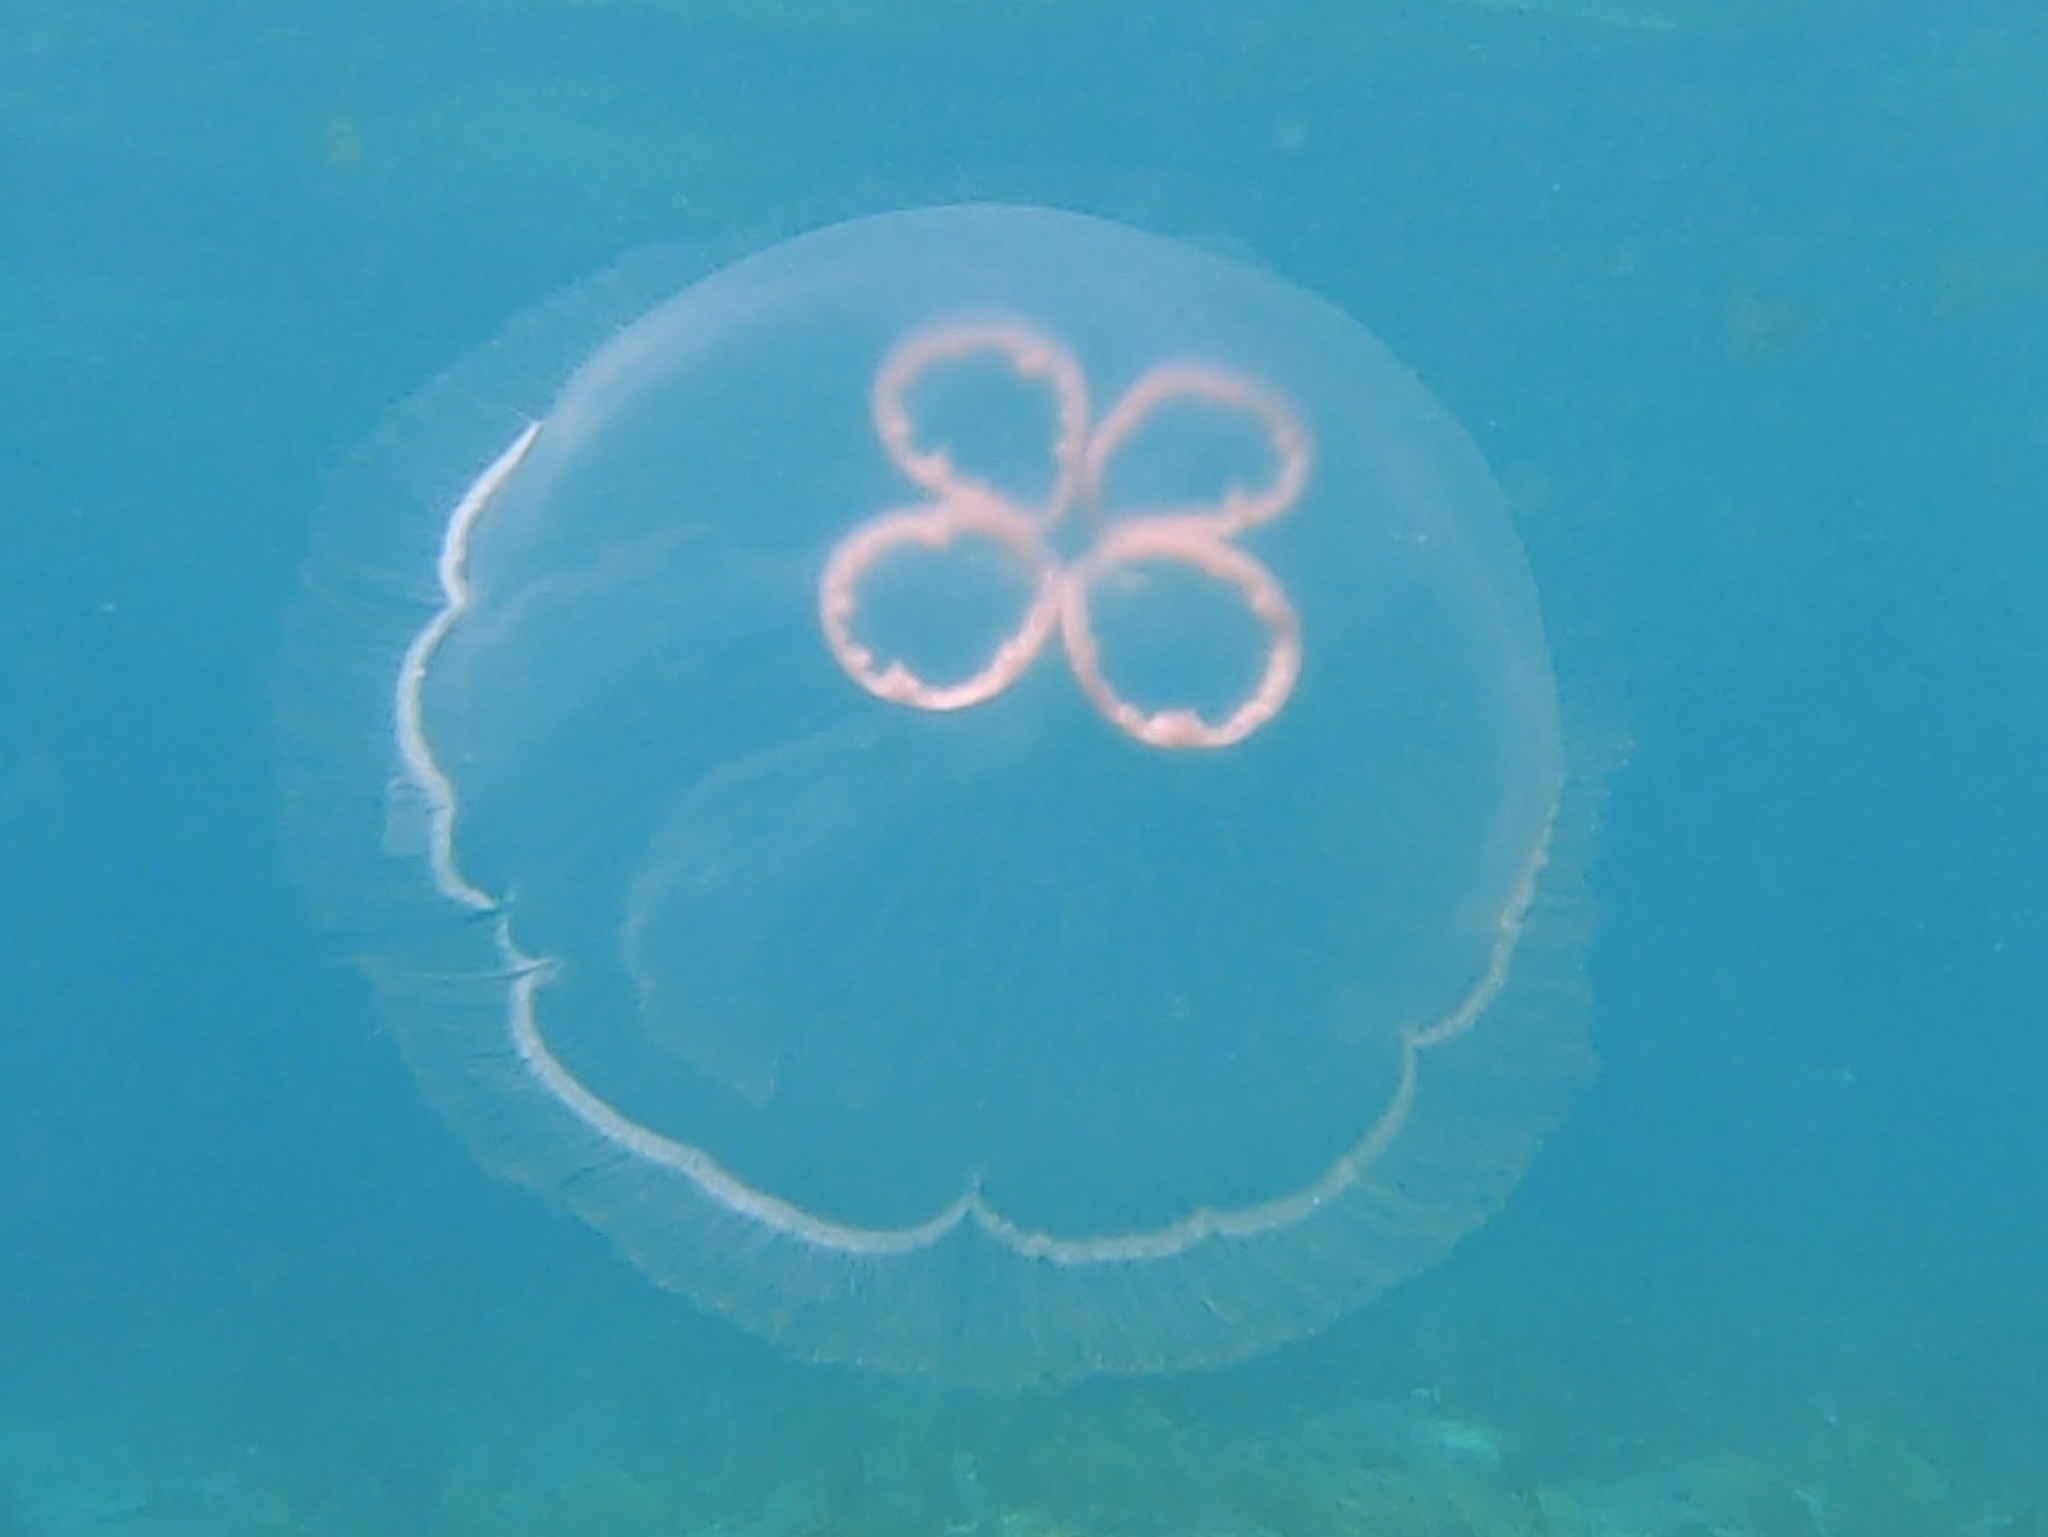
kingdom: Animalia
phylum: Cnidaria
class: Scyphozoa
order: Semaeostomeae
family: Ulmaridae
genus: Aurelia
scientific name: Aurelia marginalis
